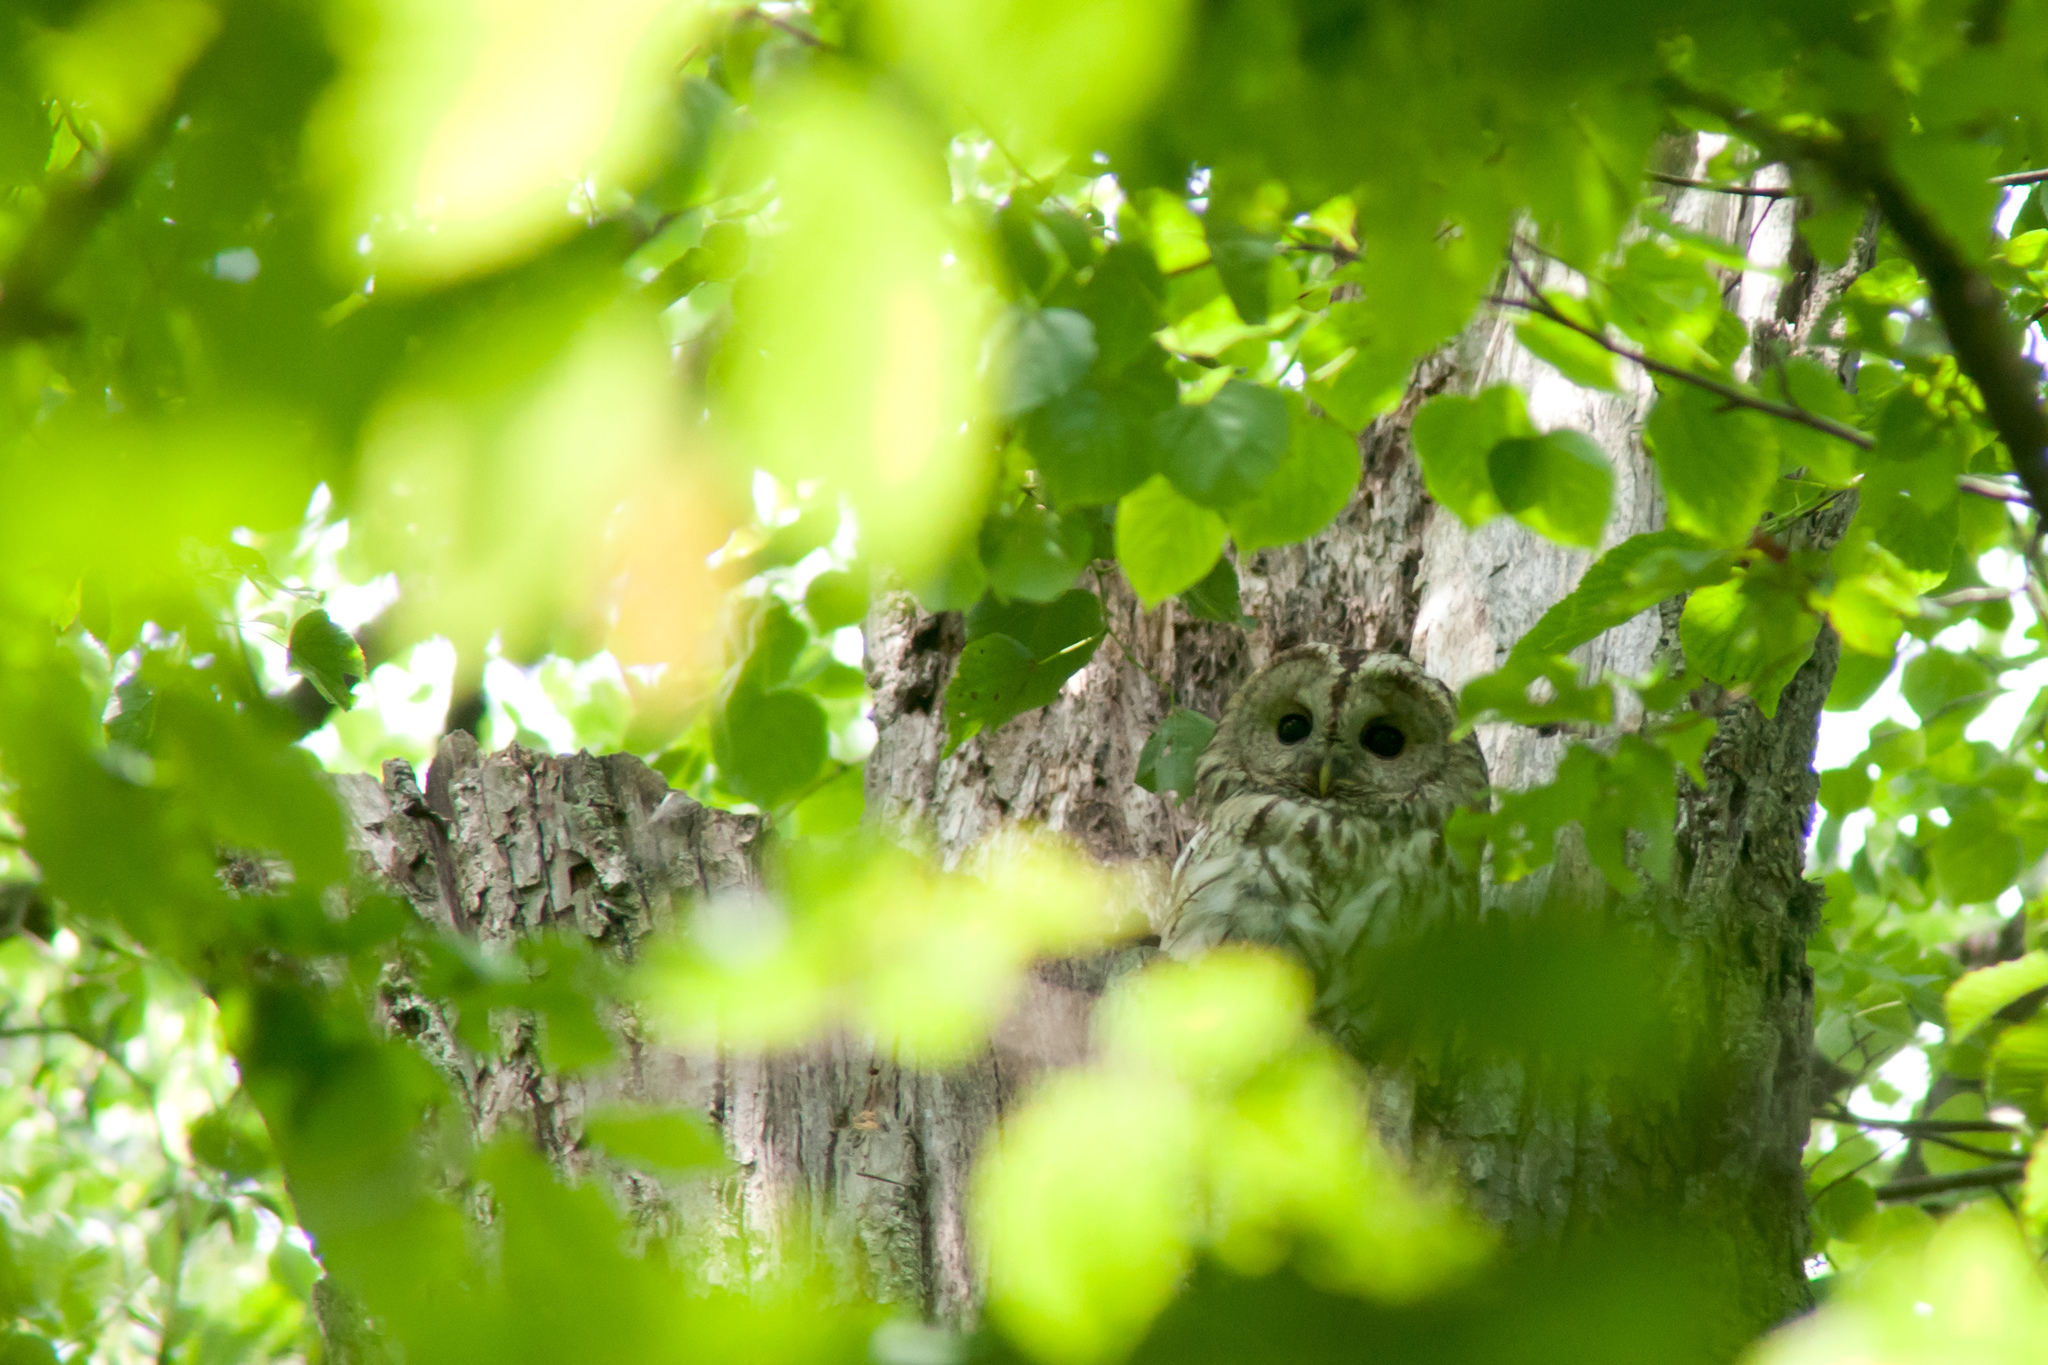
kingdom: Animalia
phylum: Chordata
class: Aves
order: Strigiformes
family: Strigidae
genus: Strix
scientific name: Strix aluco
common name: Tawny owl
